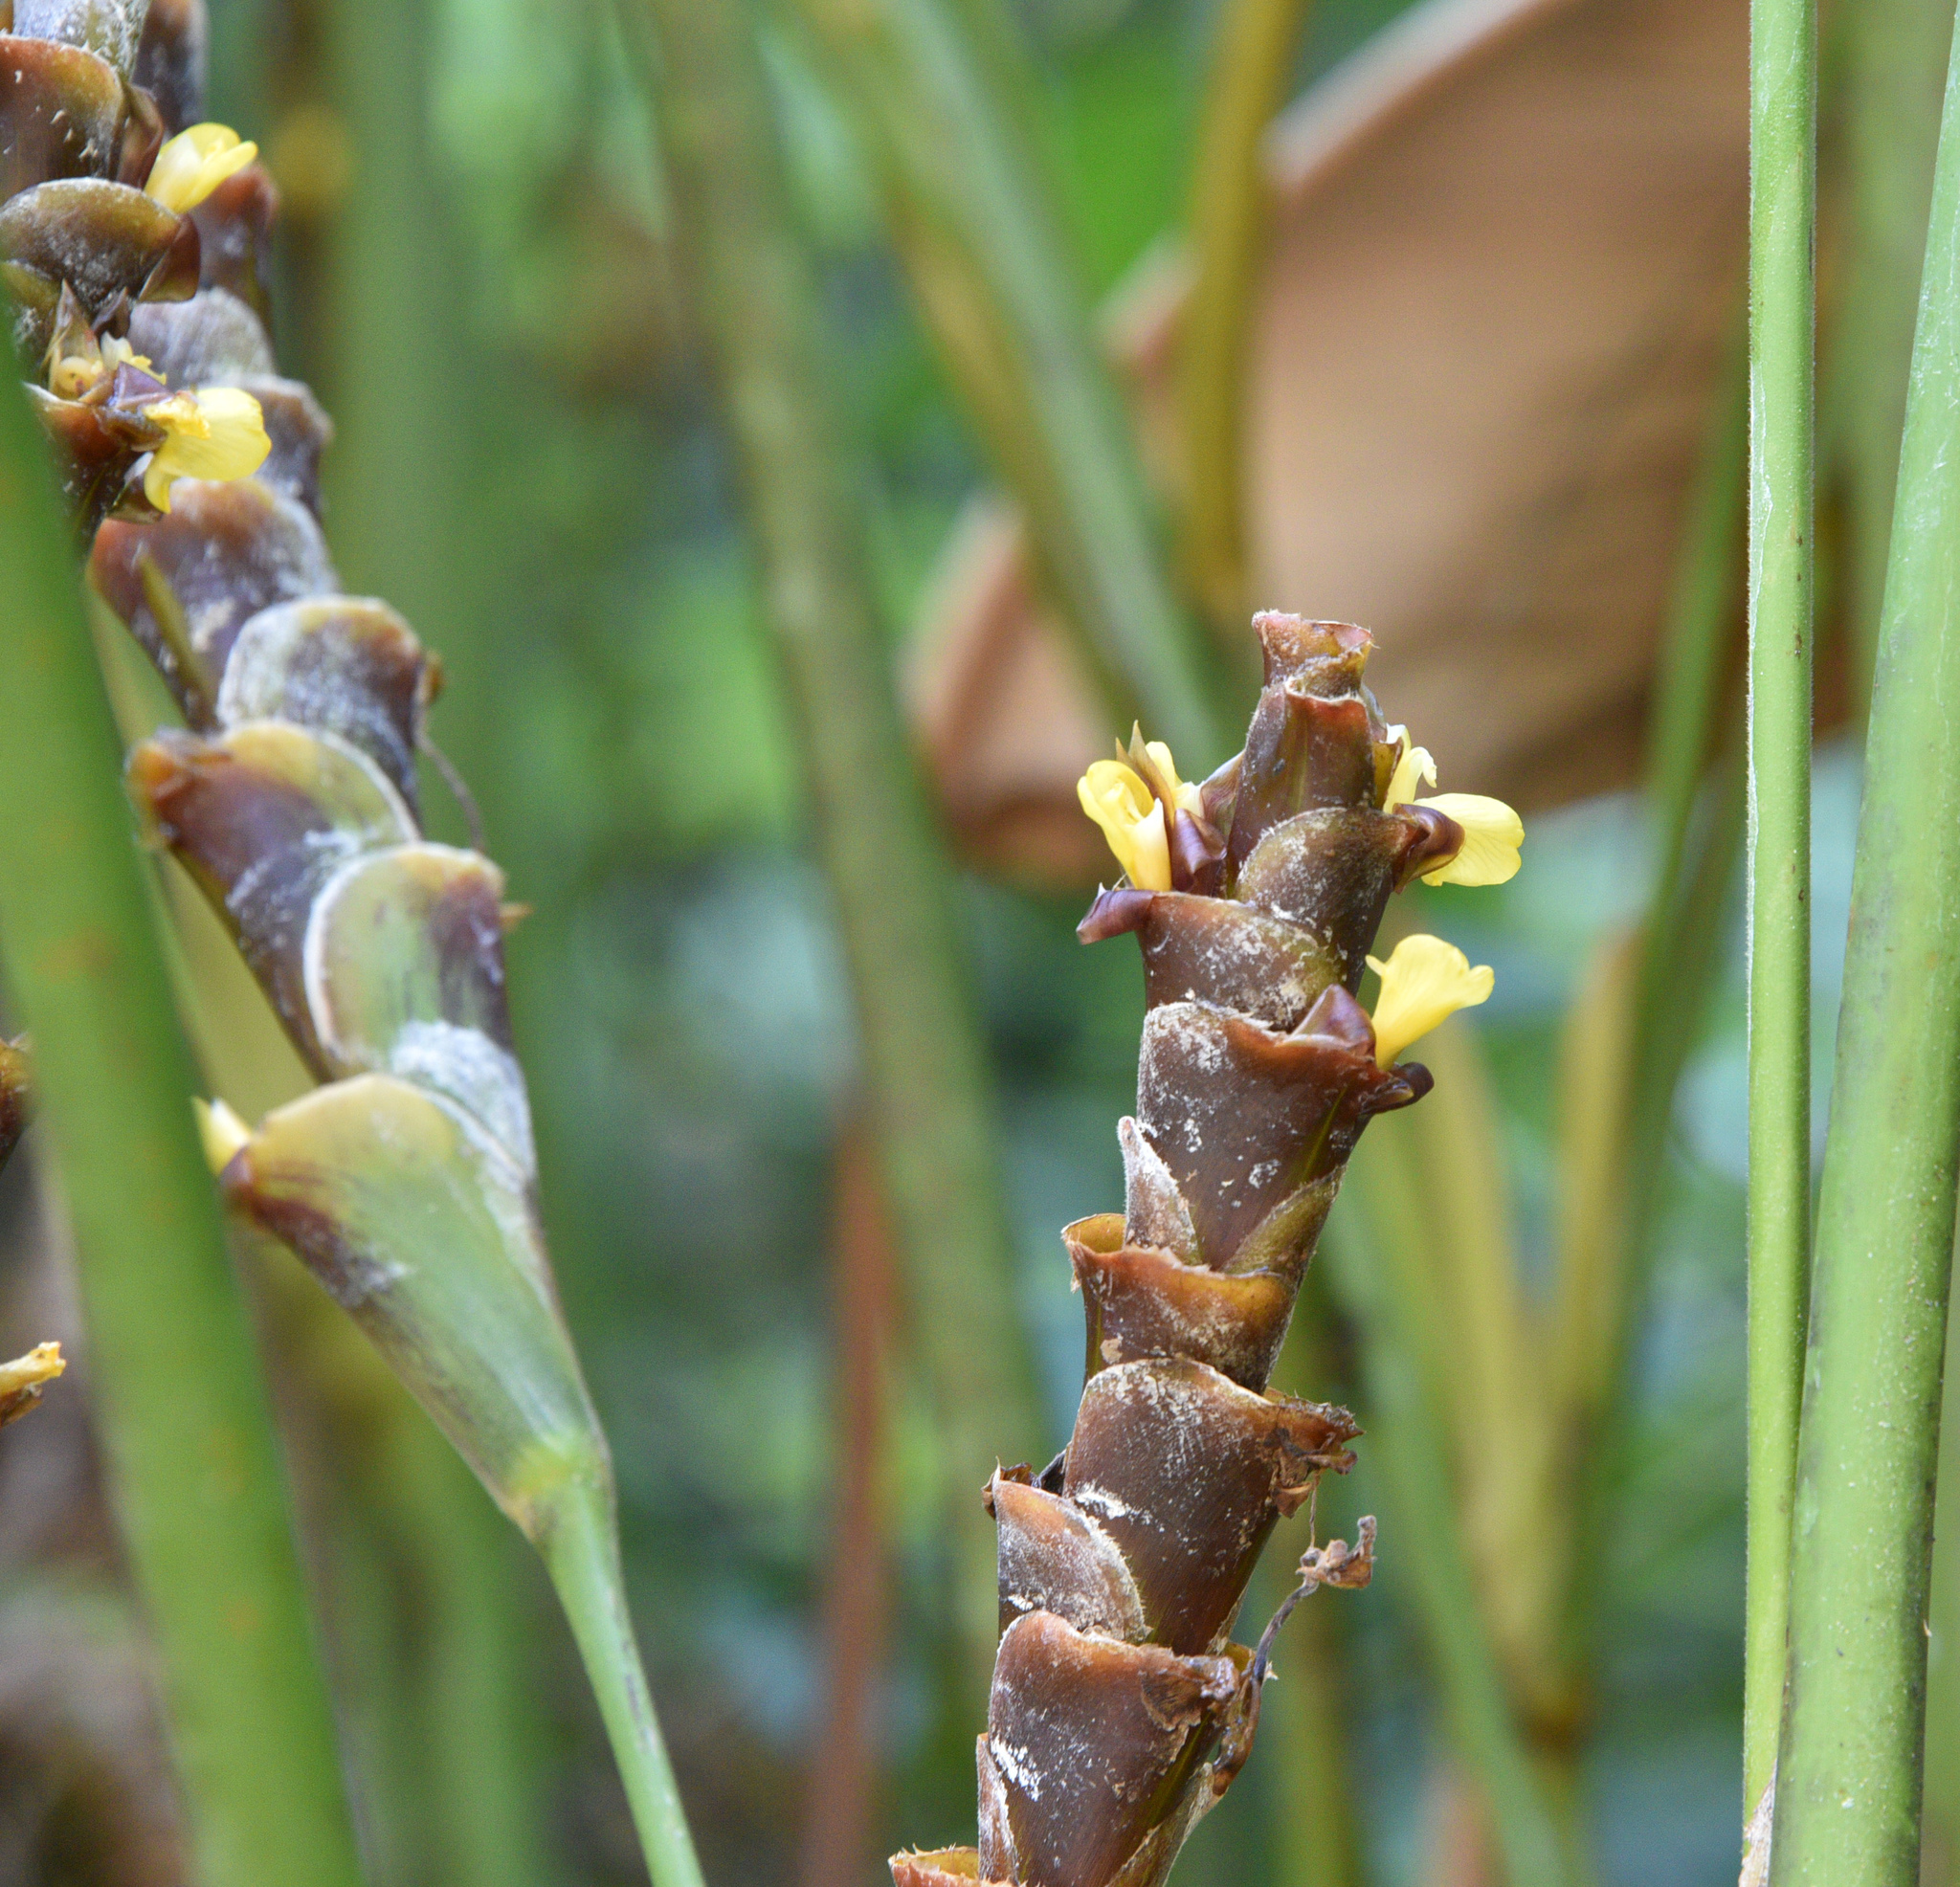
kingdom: Plantae
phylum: Tracheophyta
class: Liliopsida
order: Zingiberales
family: Marantaceae
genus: Calathea
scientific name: Calathea lutea
